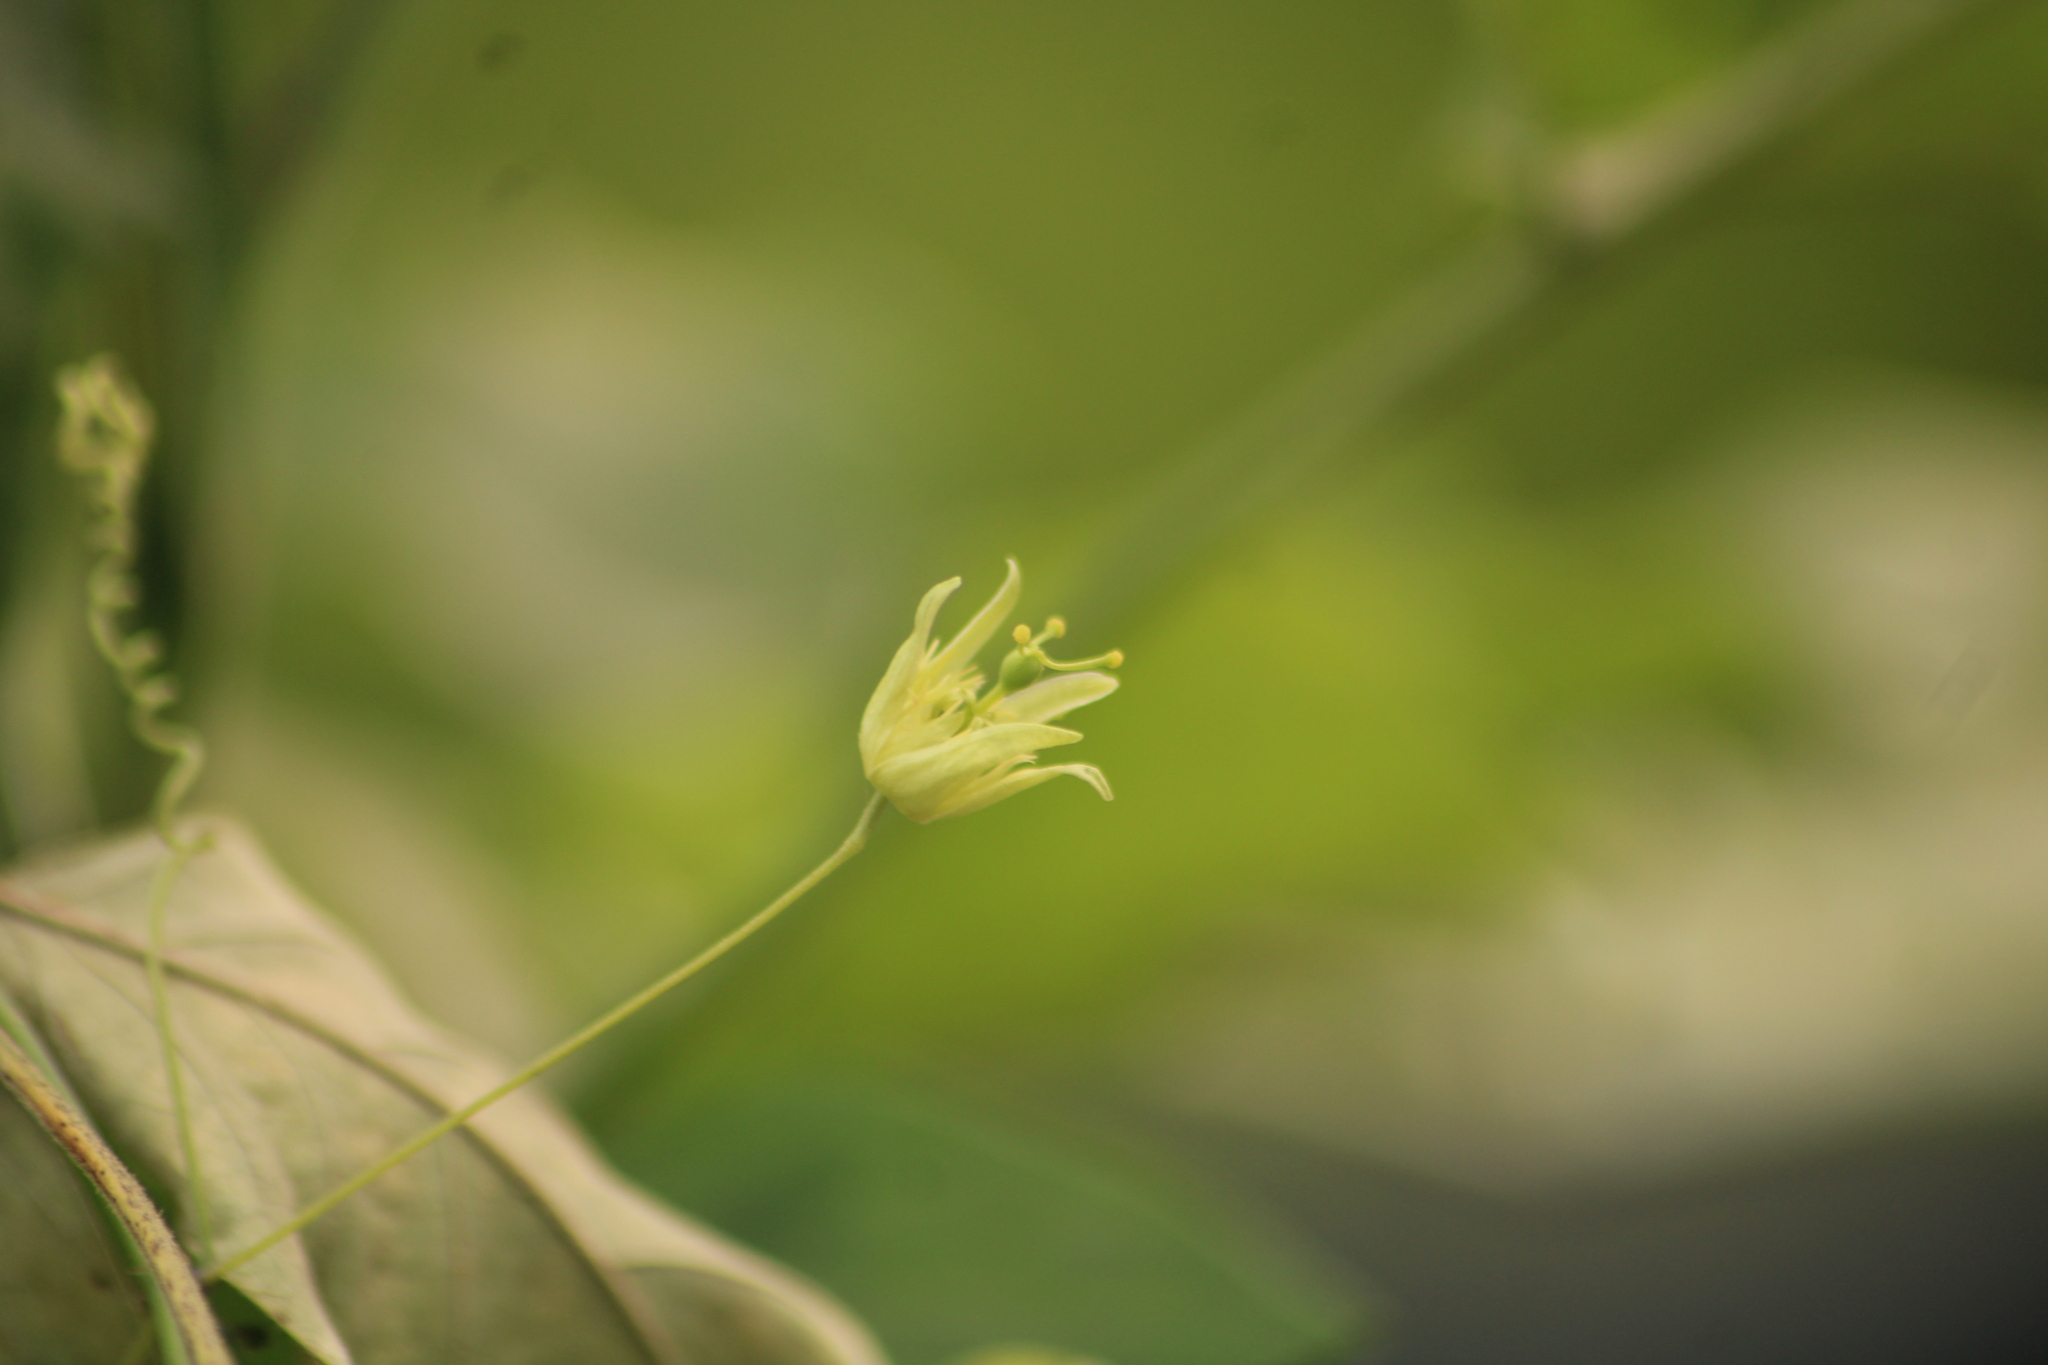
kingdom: Plantae
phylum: Tracheophyta
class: Magnoliopsida
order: Malpighiales
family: Passifloraceae
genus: Passiflora
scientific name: Passiflora filipes
